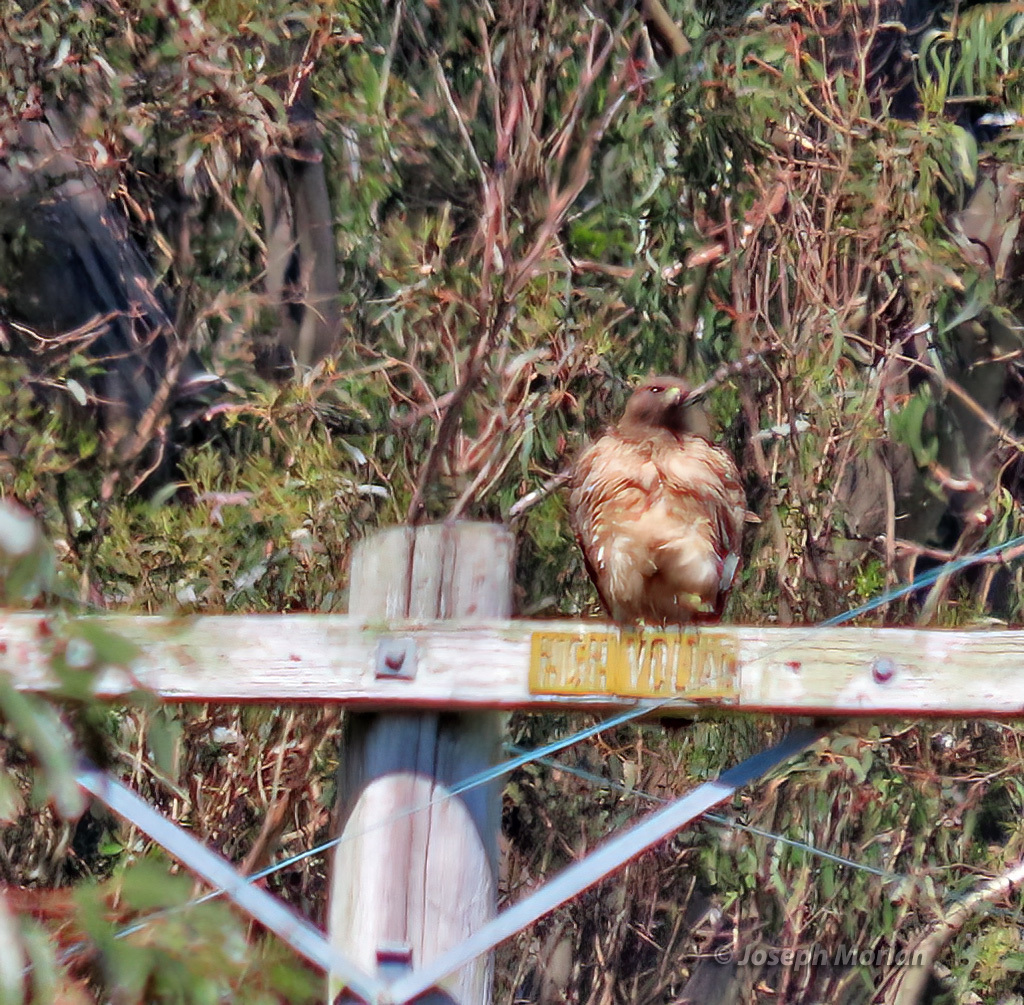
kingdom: Animalia
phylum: Chordata
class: Aves
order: Accipitriformes
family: Accipitridae
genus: Buteo
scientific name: Buteo jamaicensis
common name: Red-tailed hawk
